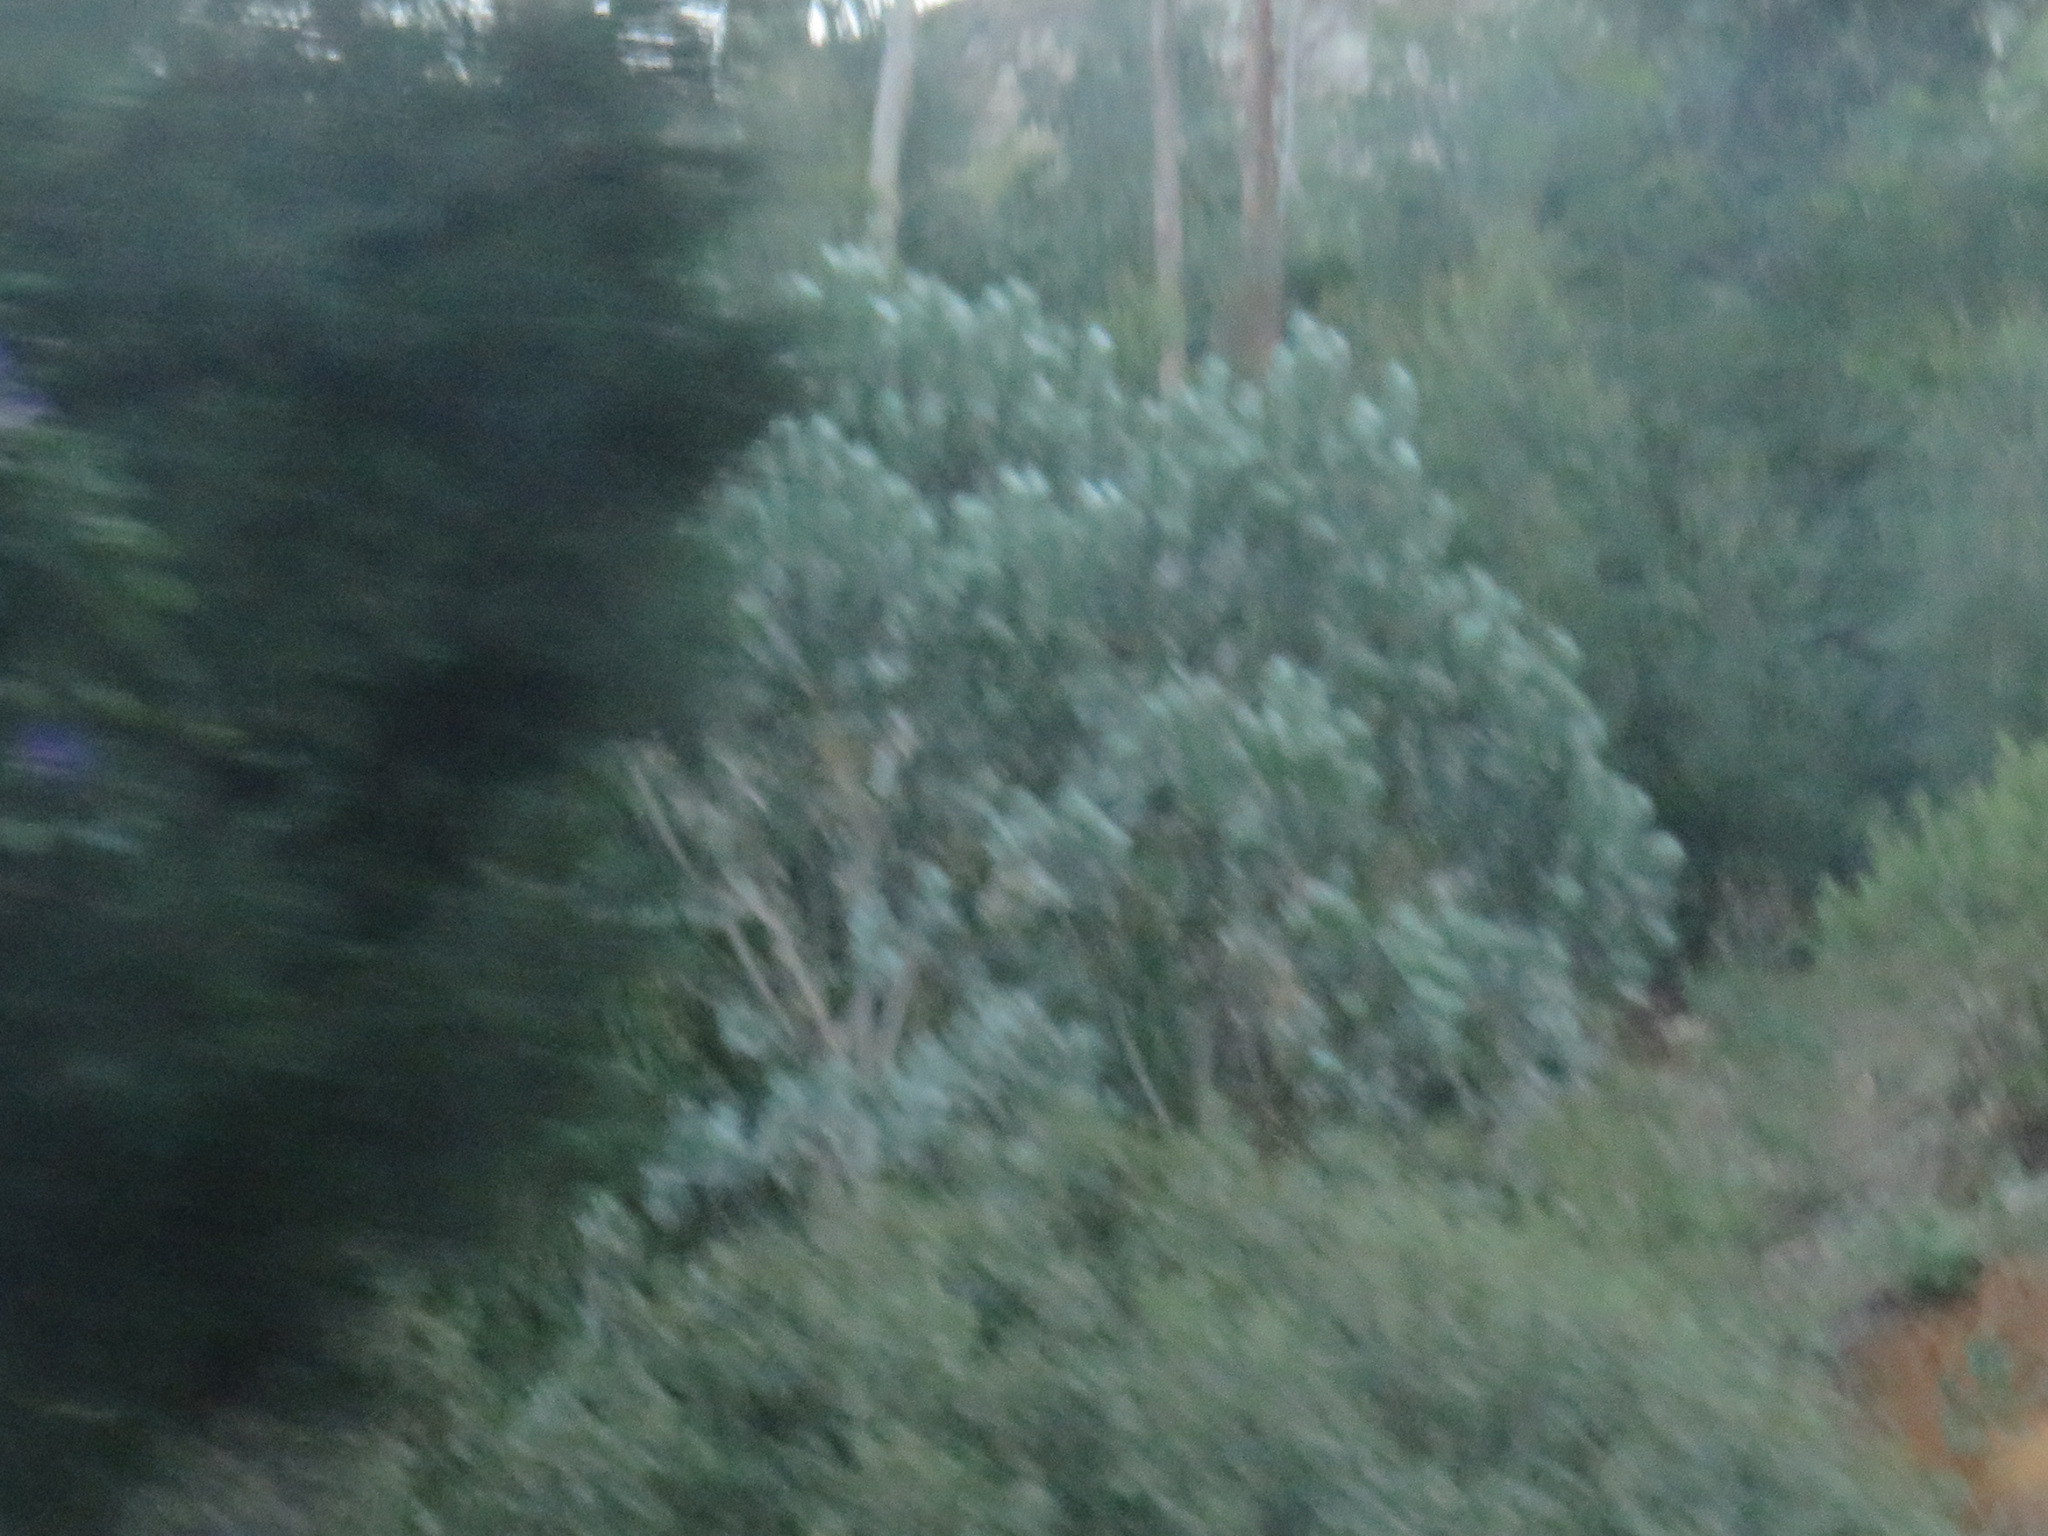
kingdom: Plantae
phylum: Tracheophyta
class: Magnoliopsida
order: Proteales
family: Proteaceae
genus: Leucadendron
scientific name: Leucadendron argenteum
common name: Cape silver tree
